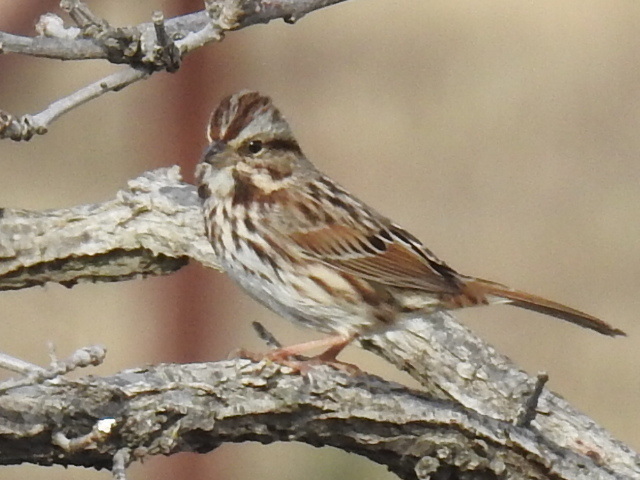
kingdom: Animalia
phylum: Chordata
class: Aves
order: Passeriformes
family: Passerellidae
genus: Melospiza
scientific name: Melospiza melodia
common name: Song sparrow
